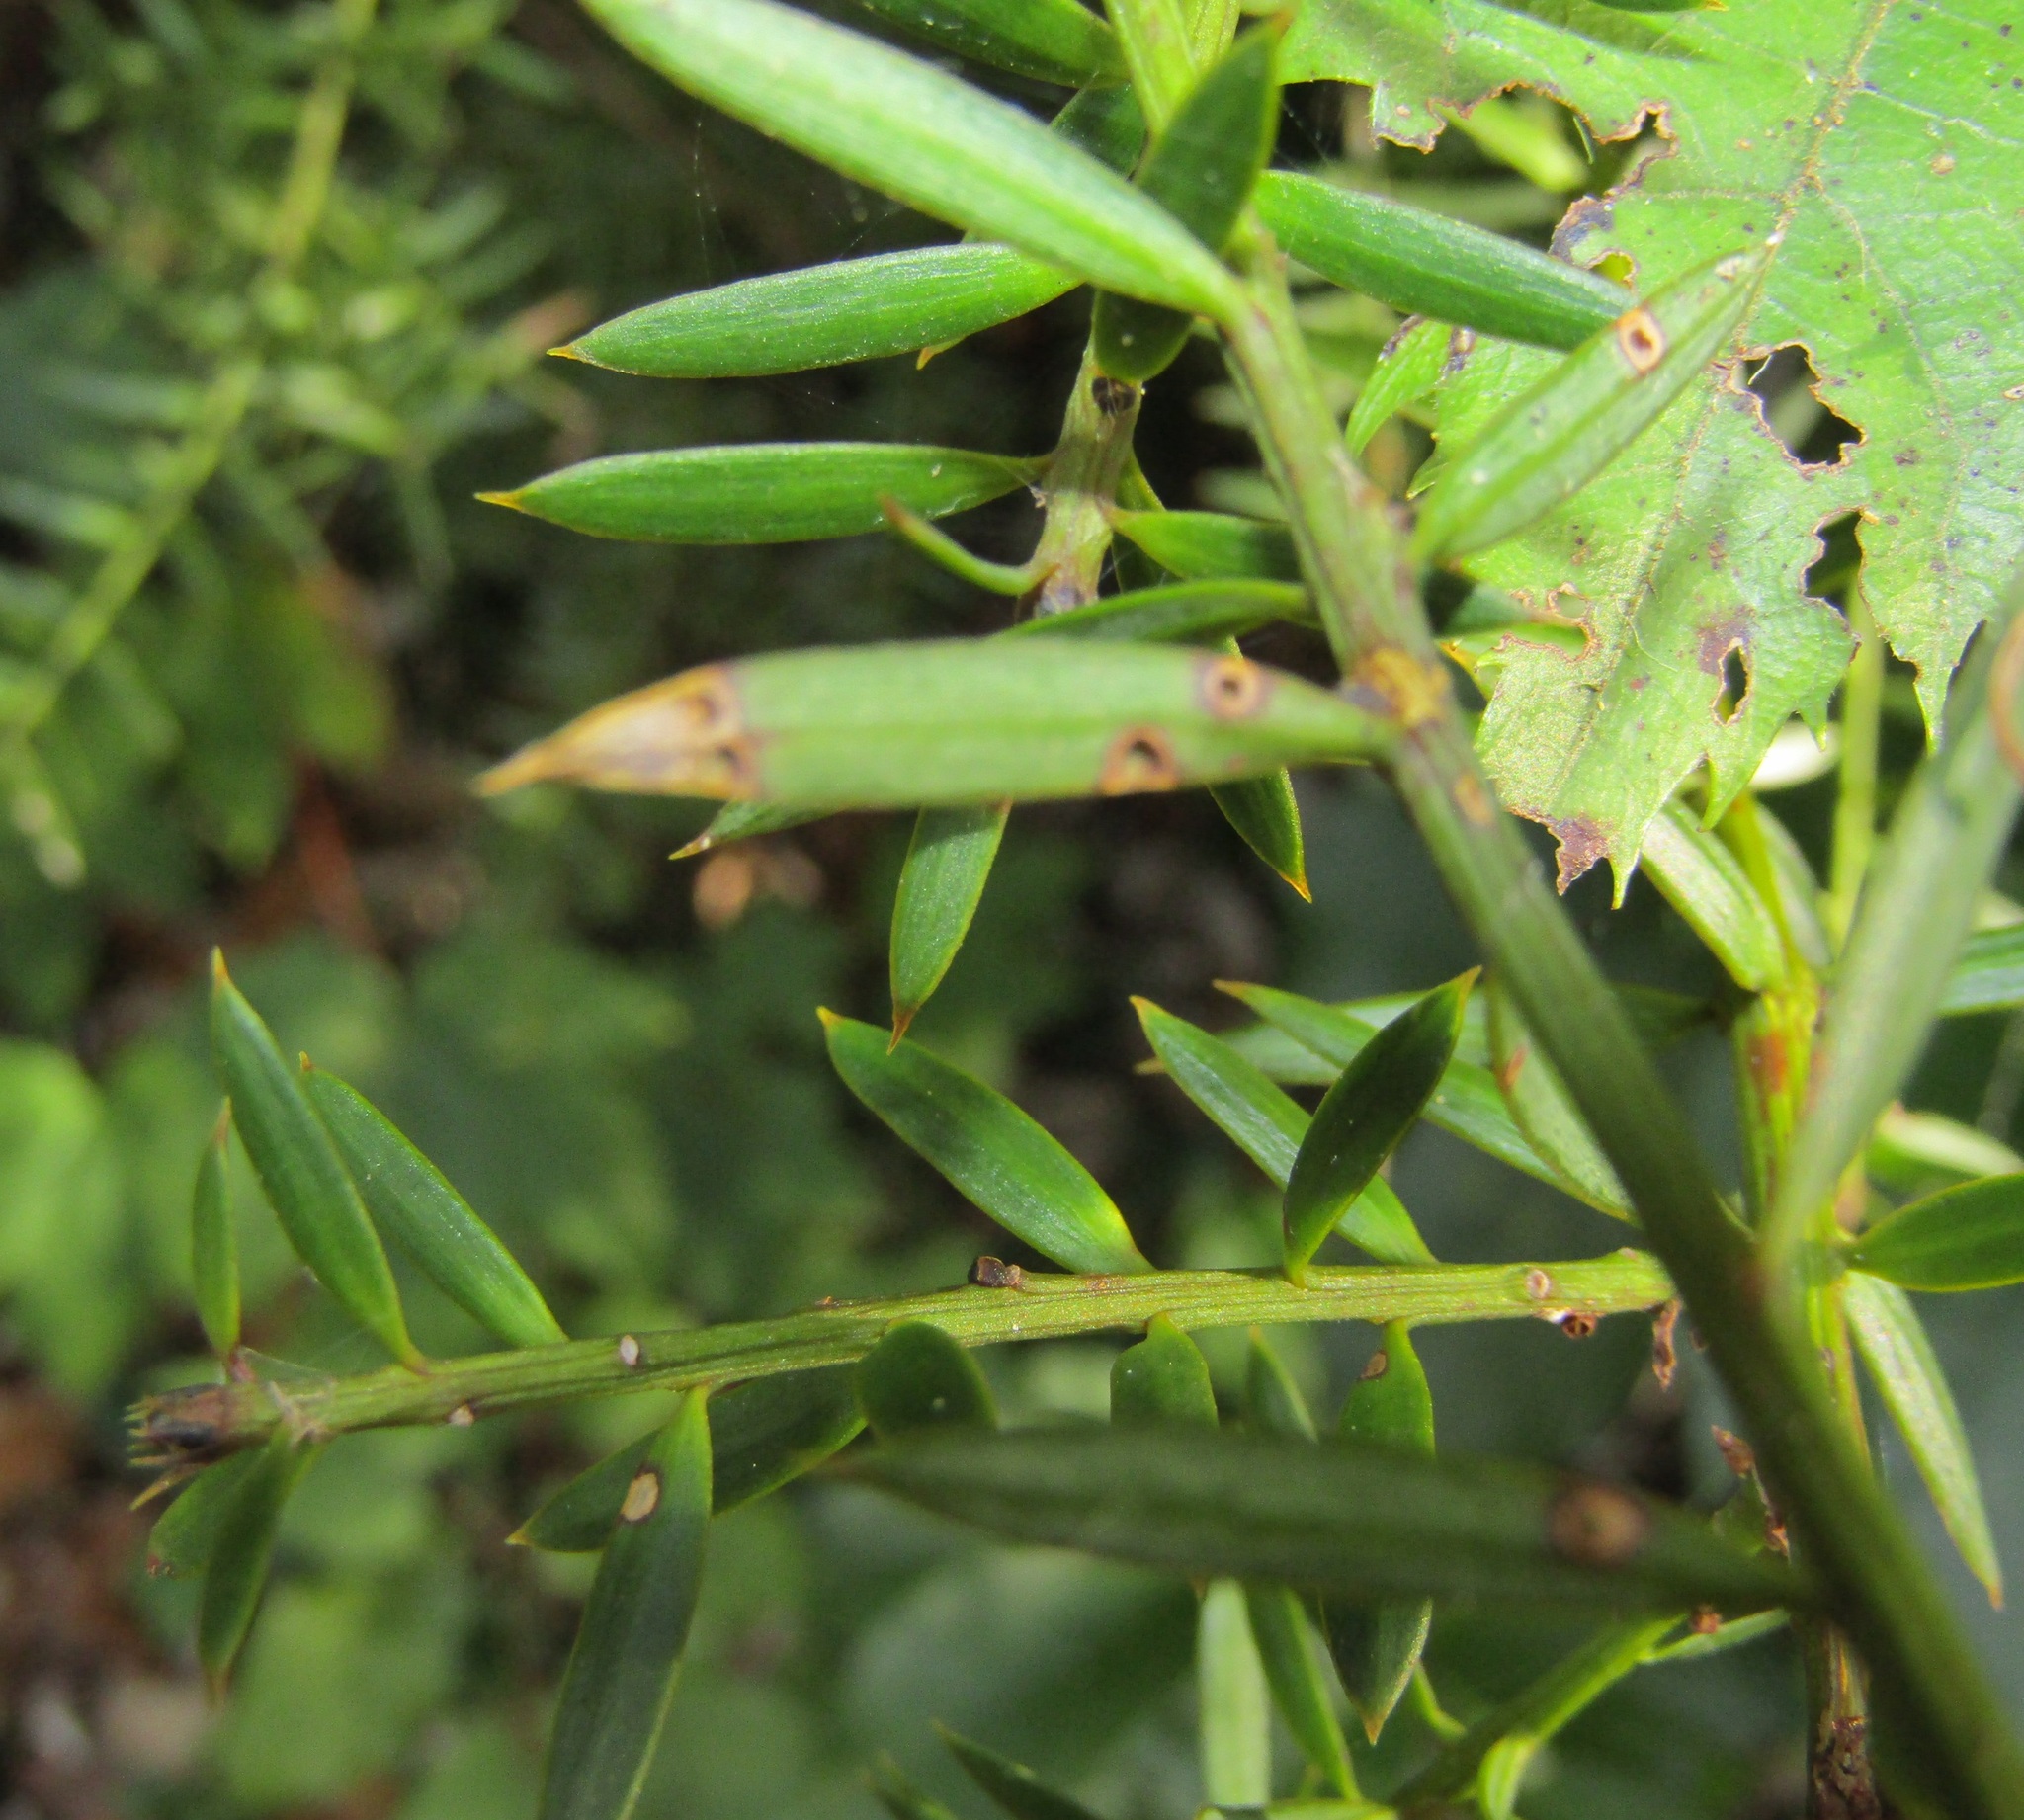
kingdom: Plantae
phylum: Tracheophyta
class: Pinopsida
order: Pinales
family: Podocarpaceae
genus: Podocarpus
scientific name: Podocarpus totara
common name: Totara
